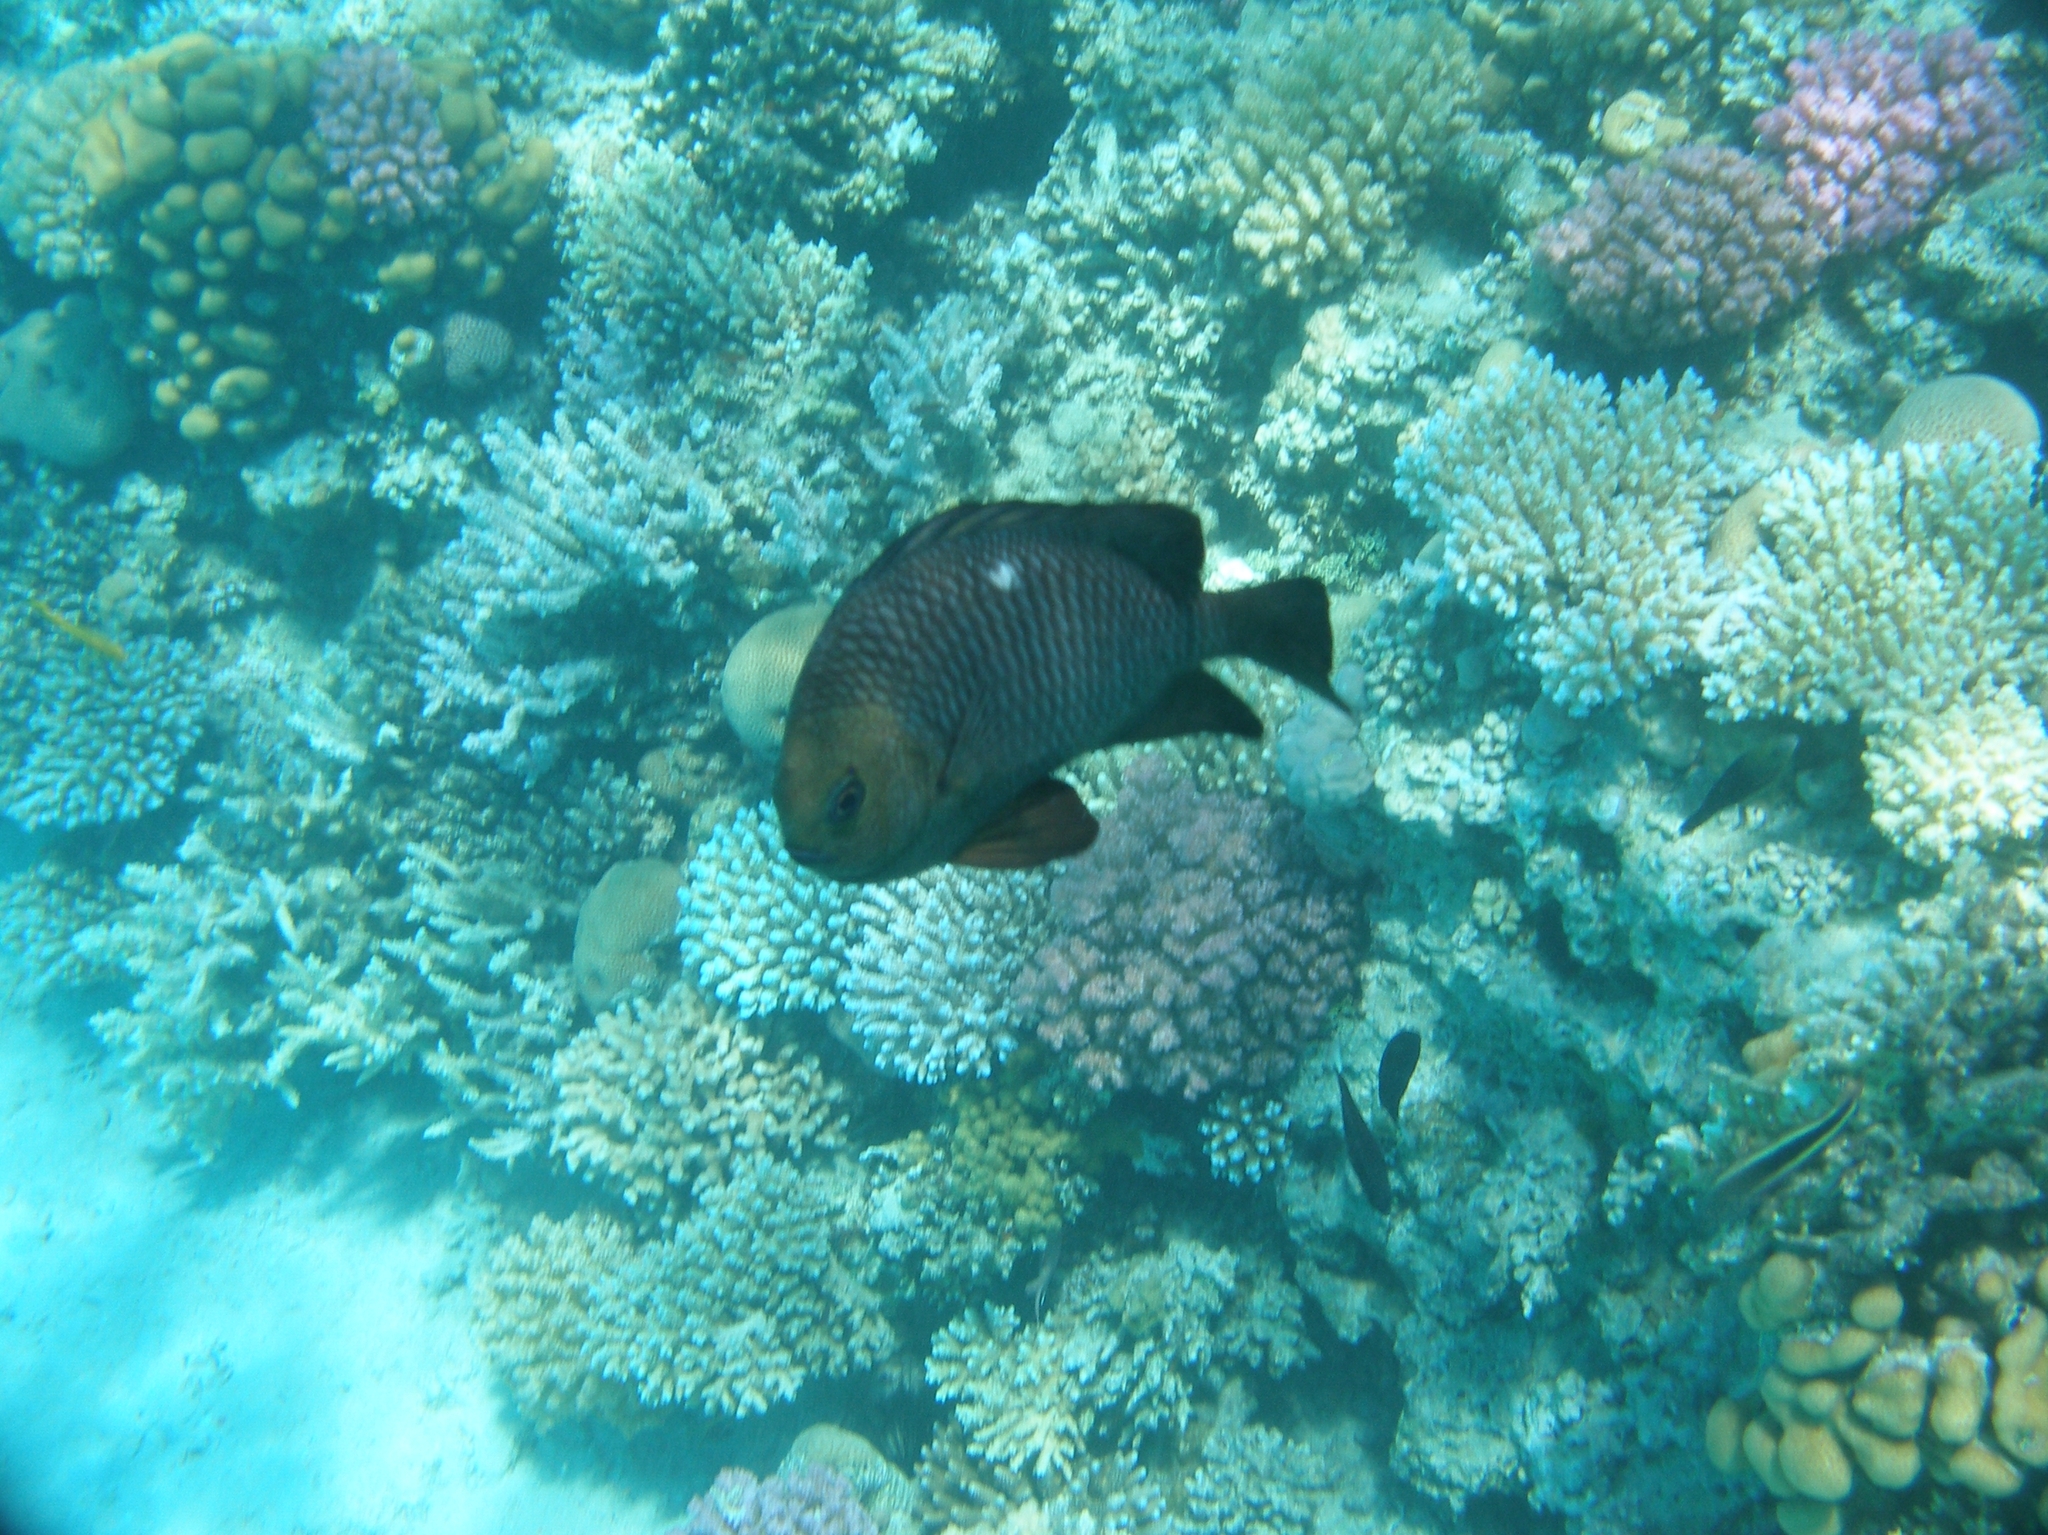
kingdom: Animalia
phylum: Chordata
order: Perciformes
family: Pomacentridae
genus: Dascyllus
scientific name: Dascyllus trimaculatus
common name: Threespot dascyllus
